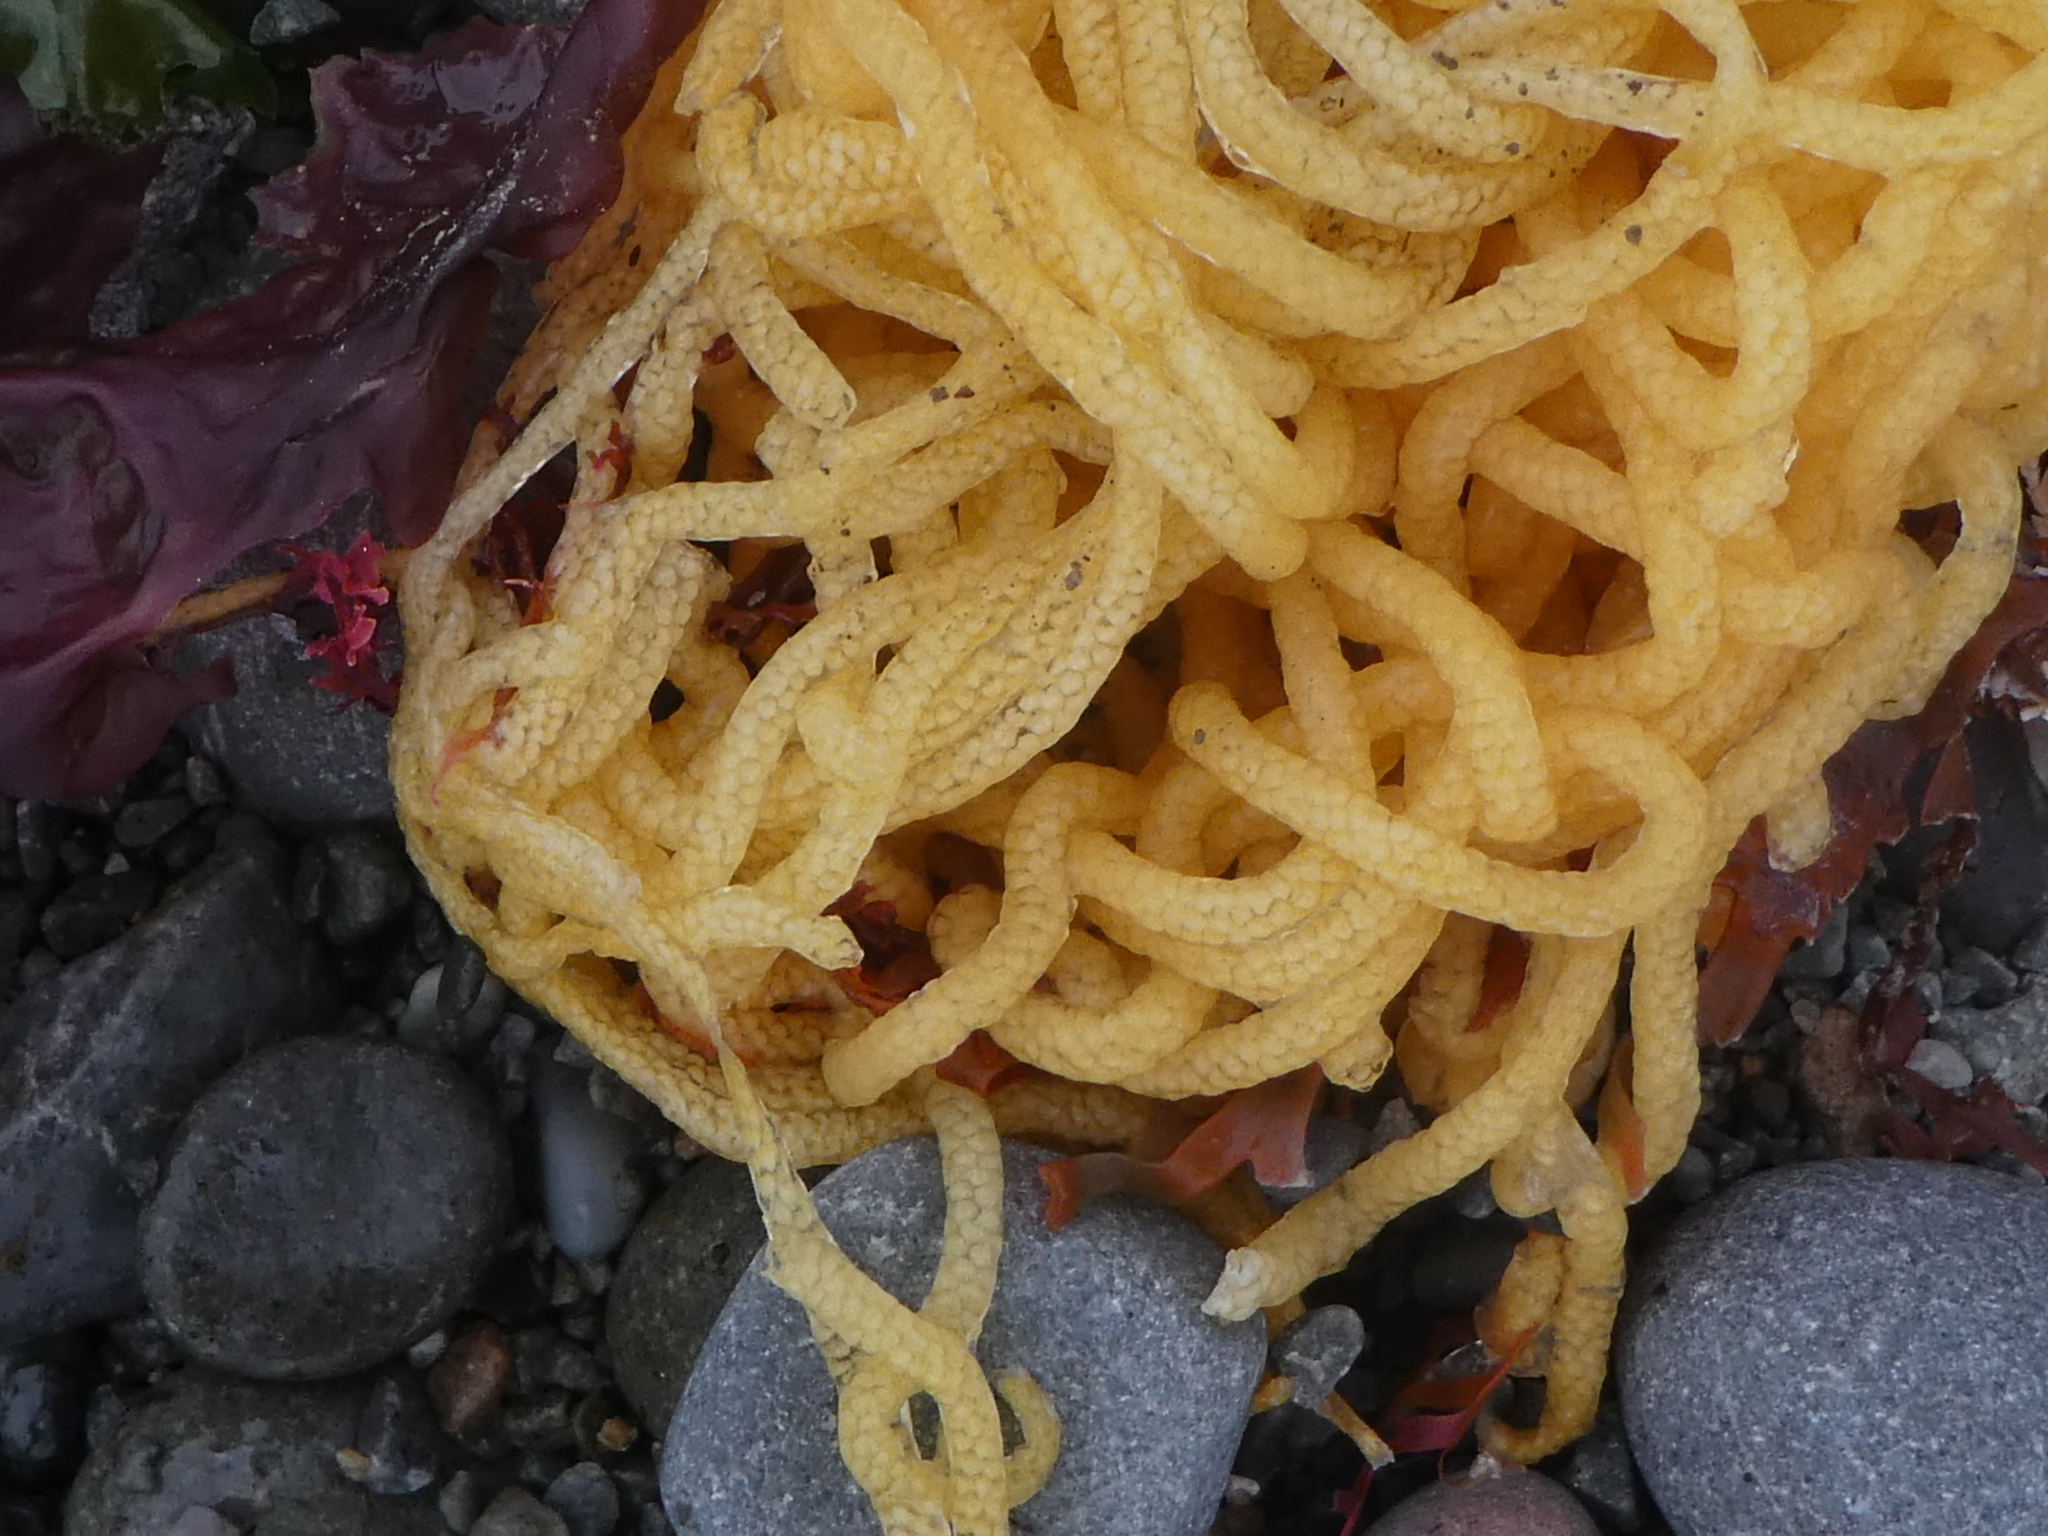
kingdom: Animalia
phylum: Mollusca
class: Gastropoda
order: Aplysiida
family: Aplysiidae
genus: Aplysia
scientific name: Aplysia juliana
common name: Walking sea hare
